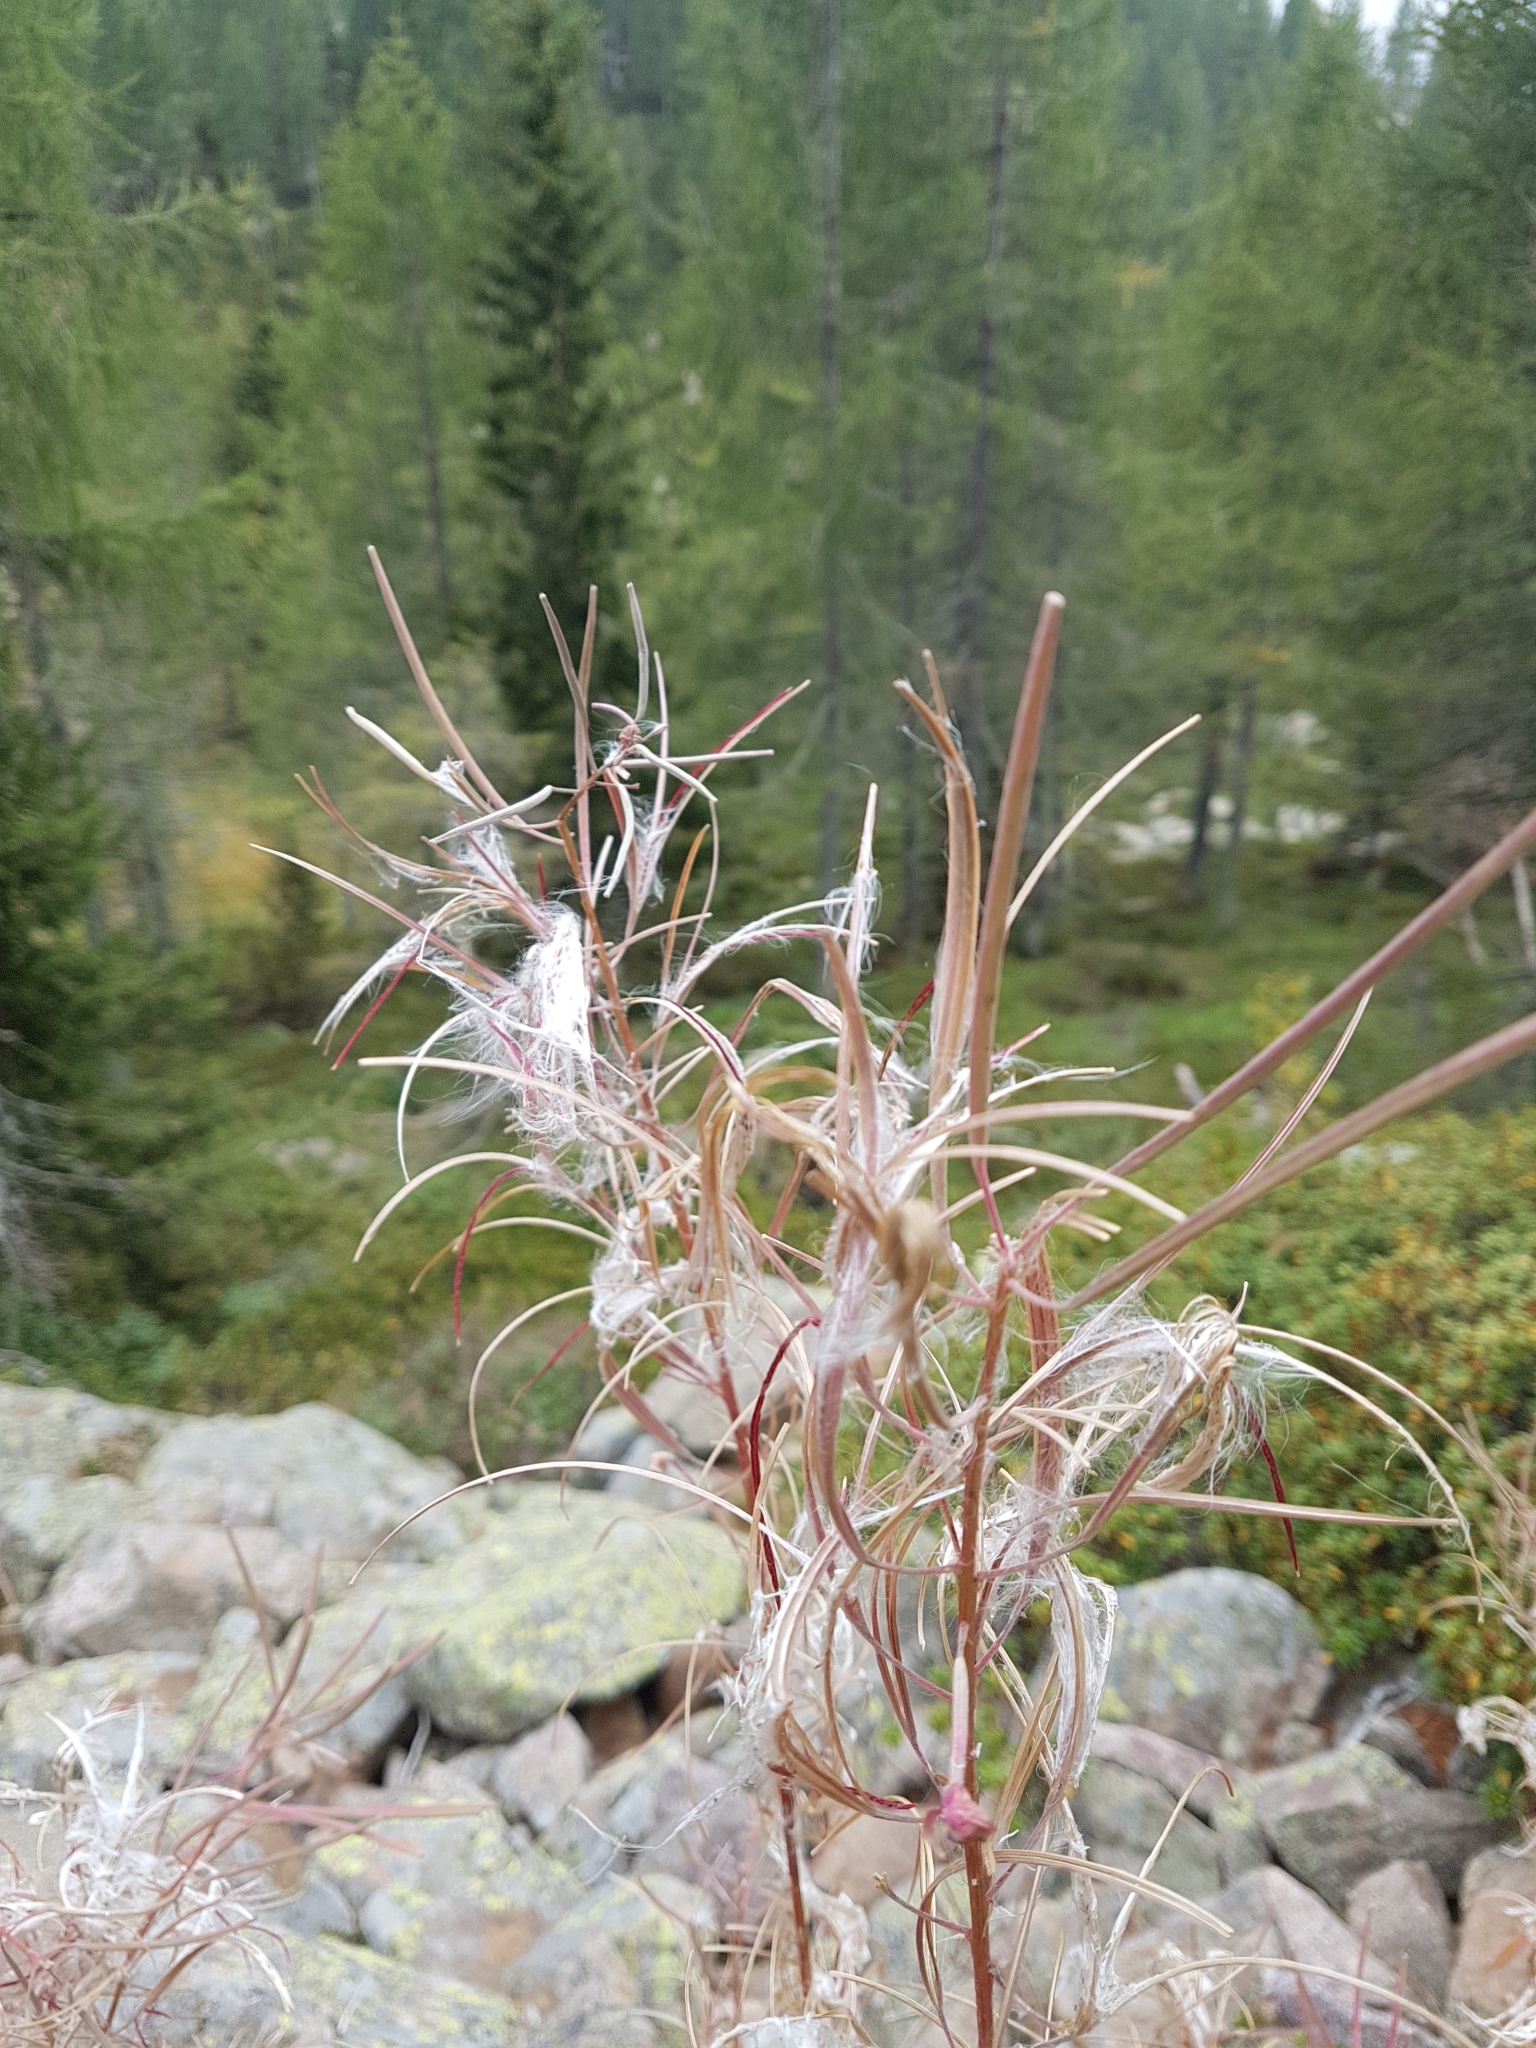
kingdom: Plantae
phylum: Tracheophyta
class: Magnoliopsida
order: Myrtales
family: Onagraceae
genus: Chamaenerion
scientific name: Chamaenerion angustifolium
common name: Fireweed
